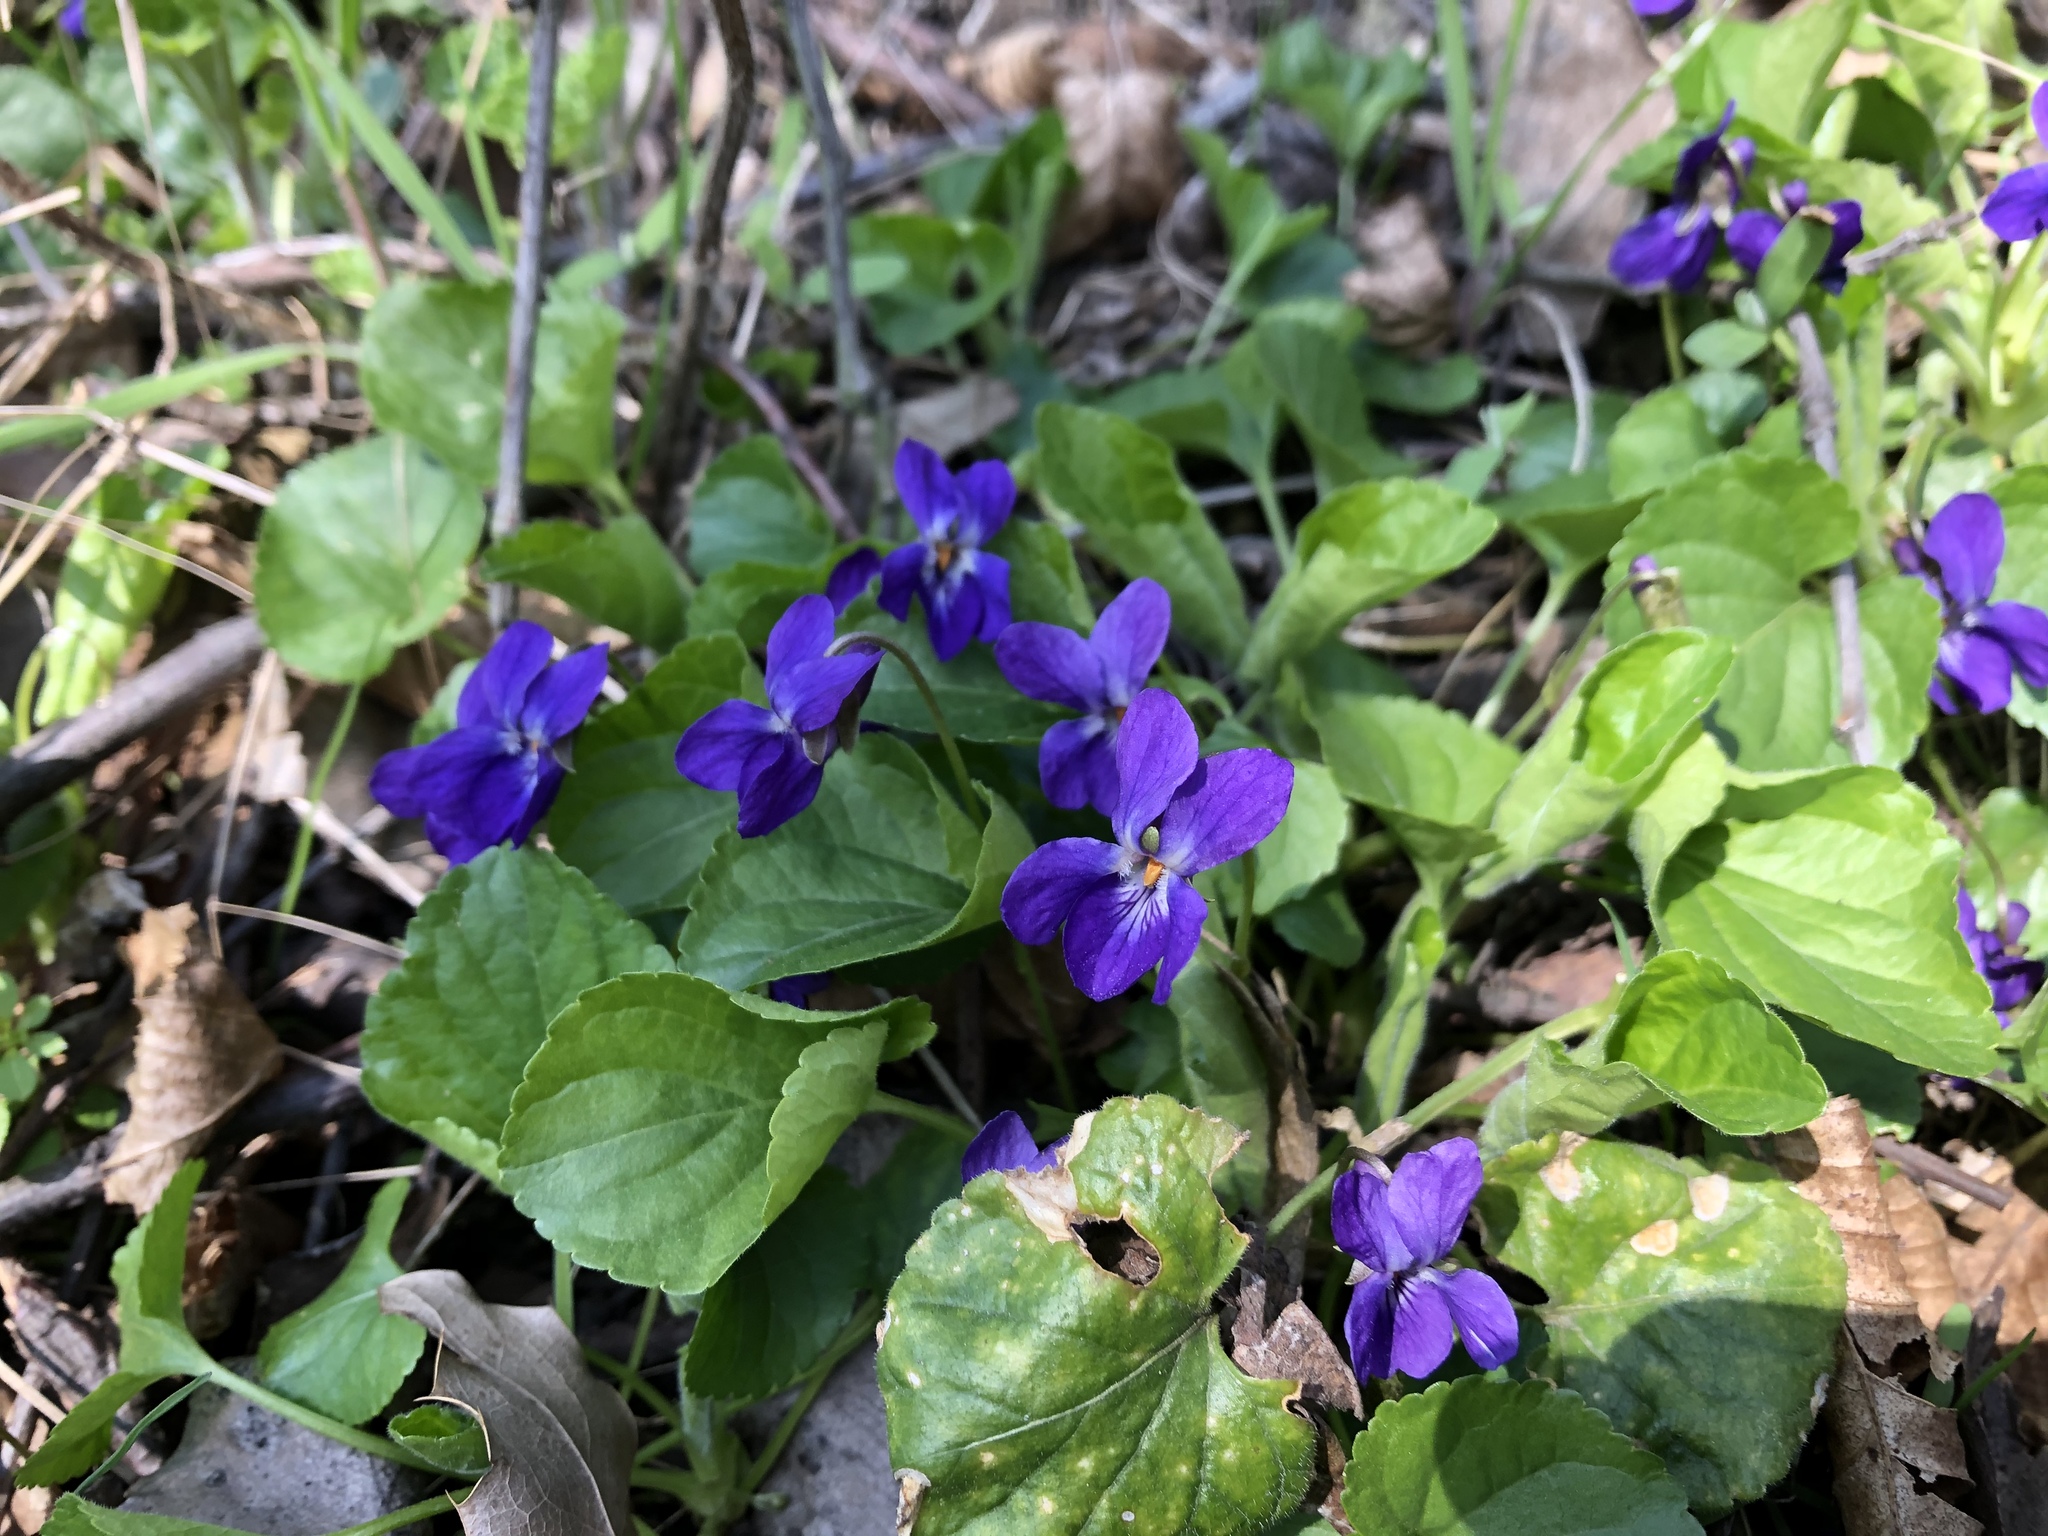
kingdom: Plantae
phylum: Tracheophyta
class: Magnoliopsida
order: Malpighiales
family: Violaceae
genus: Viola
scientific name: Viola odorata
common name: Sweet violet
